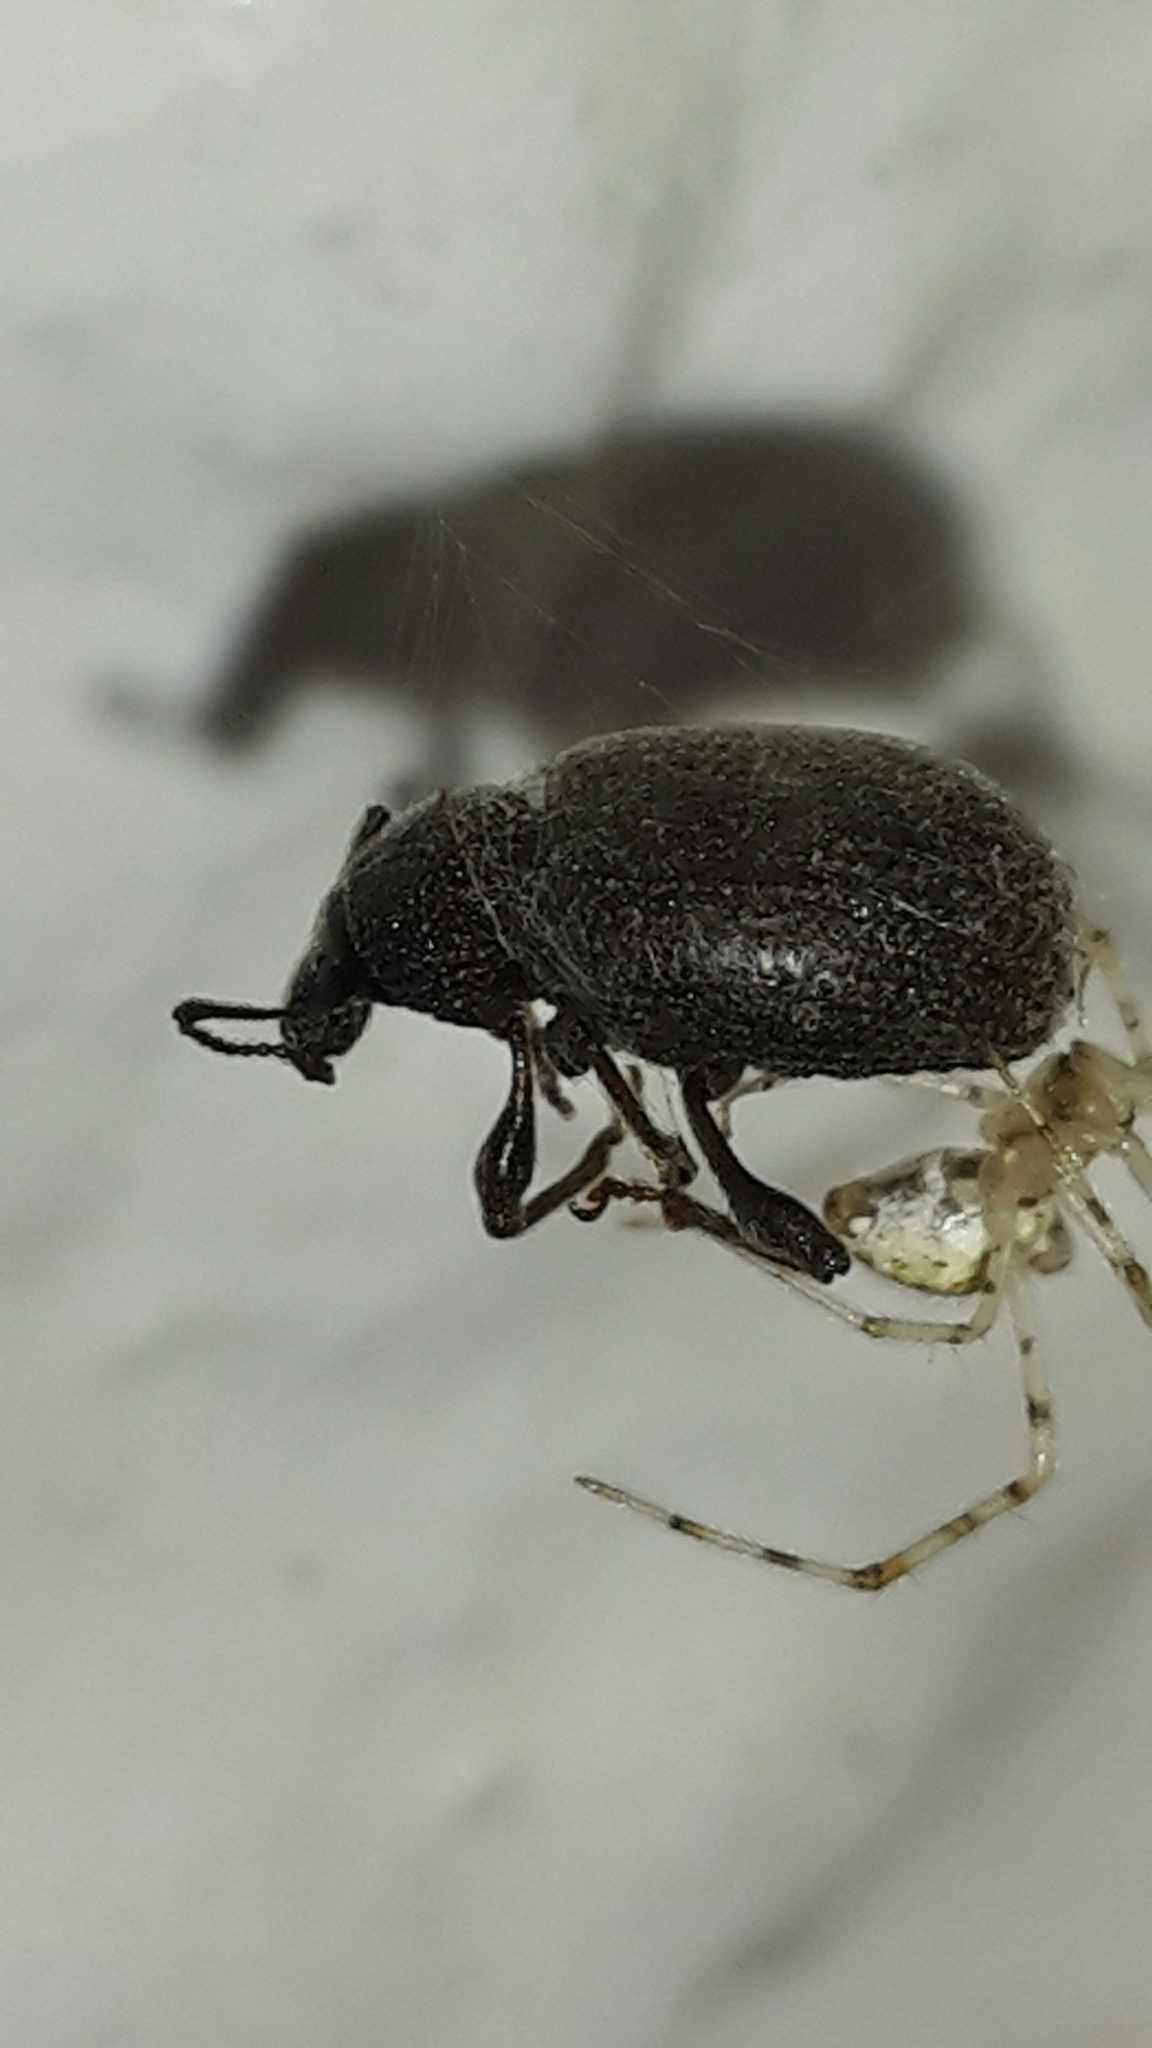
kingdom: Animalia
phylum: Arthropoda
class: Insecta
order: Coleoptera
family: Curculionidae
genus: Otiorhynchus
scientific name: Otiorhynchus rugosostriatus
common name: Weevil
